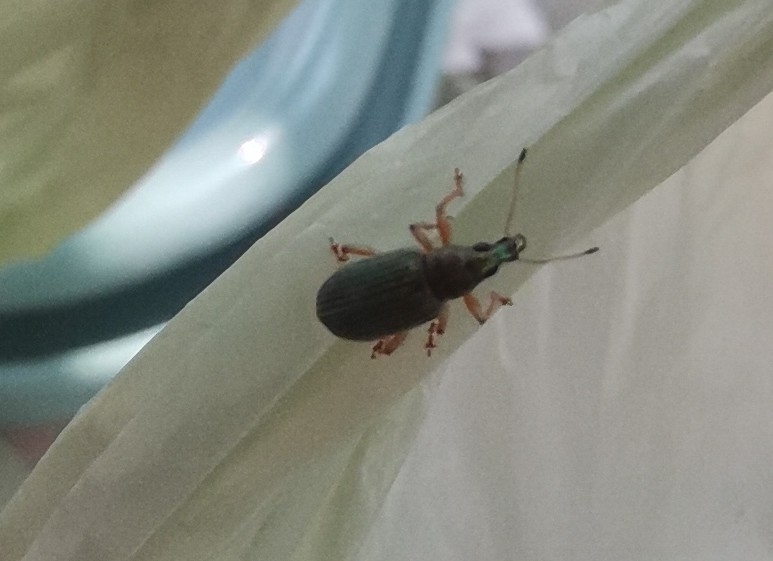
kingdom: Animalia
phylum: Arthropoda
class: Insecta
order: Coleoptera
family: Curculionidae
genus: Polydrusus
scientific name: Polydrusus formosus
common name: Weevil
